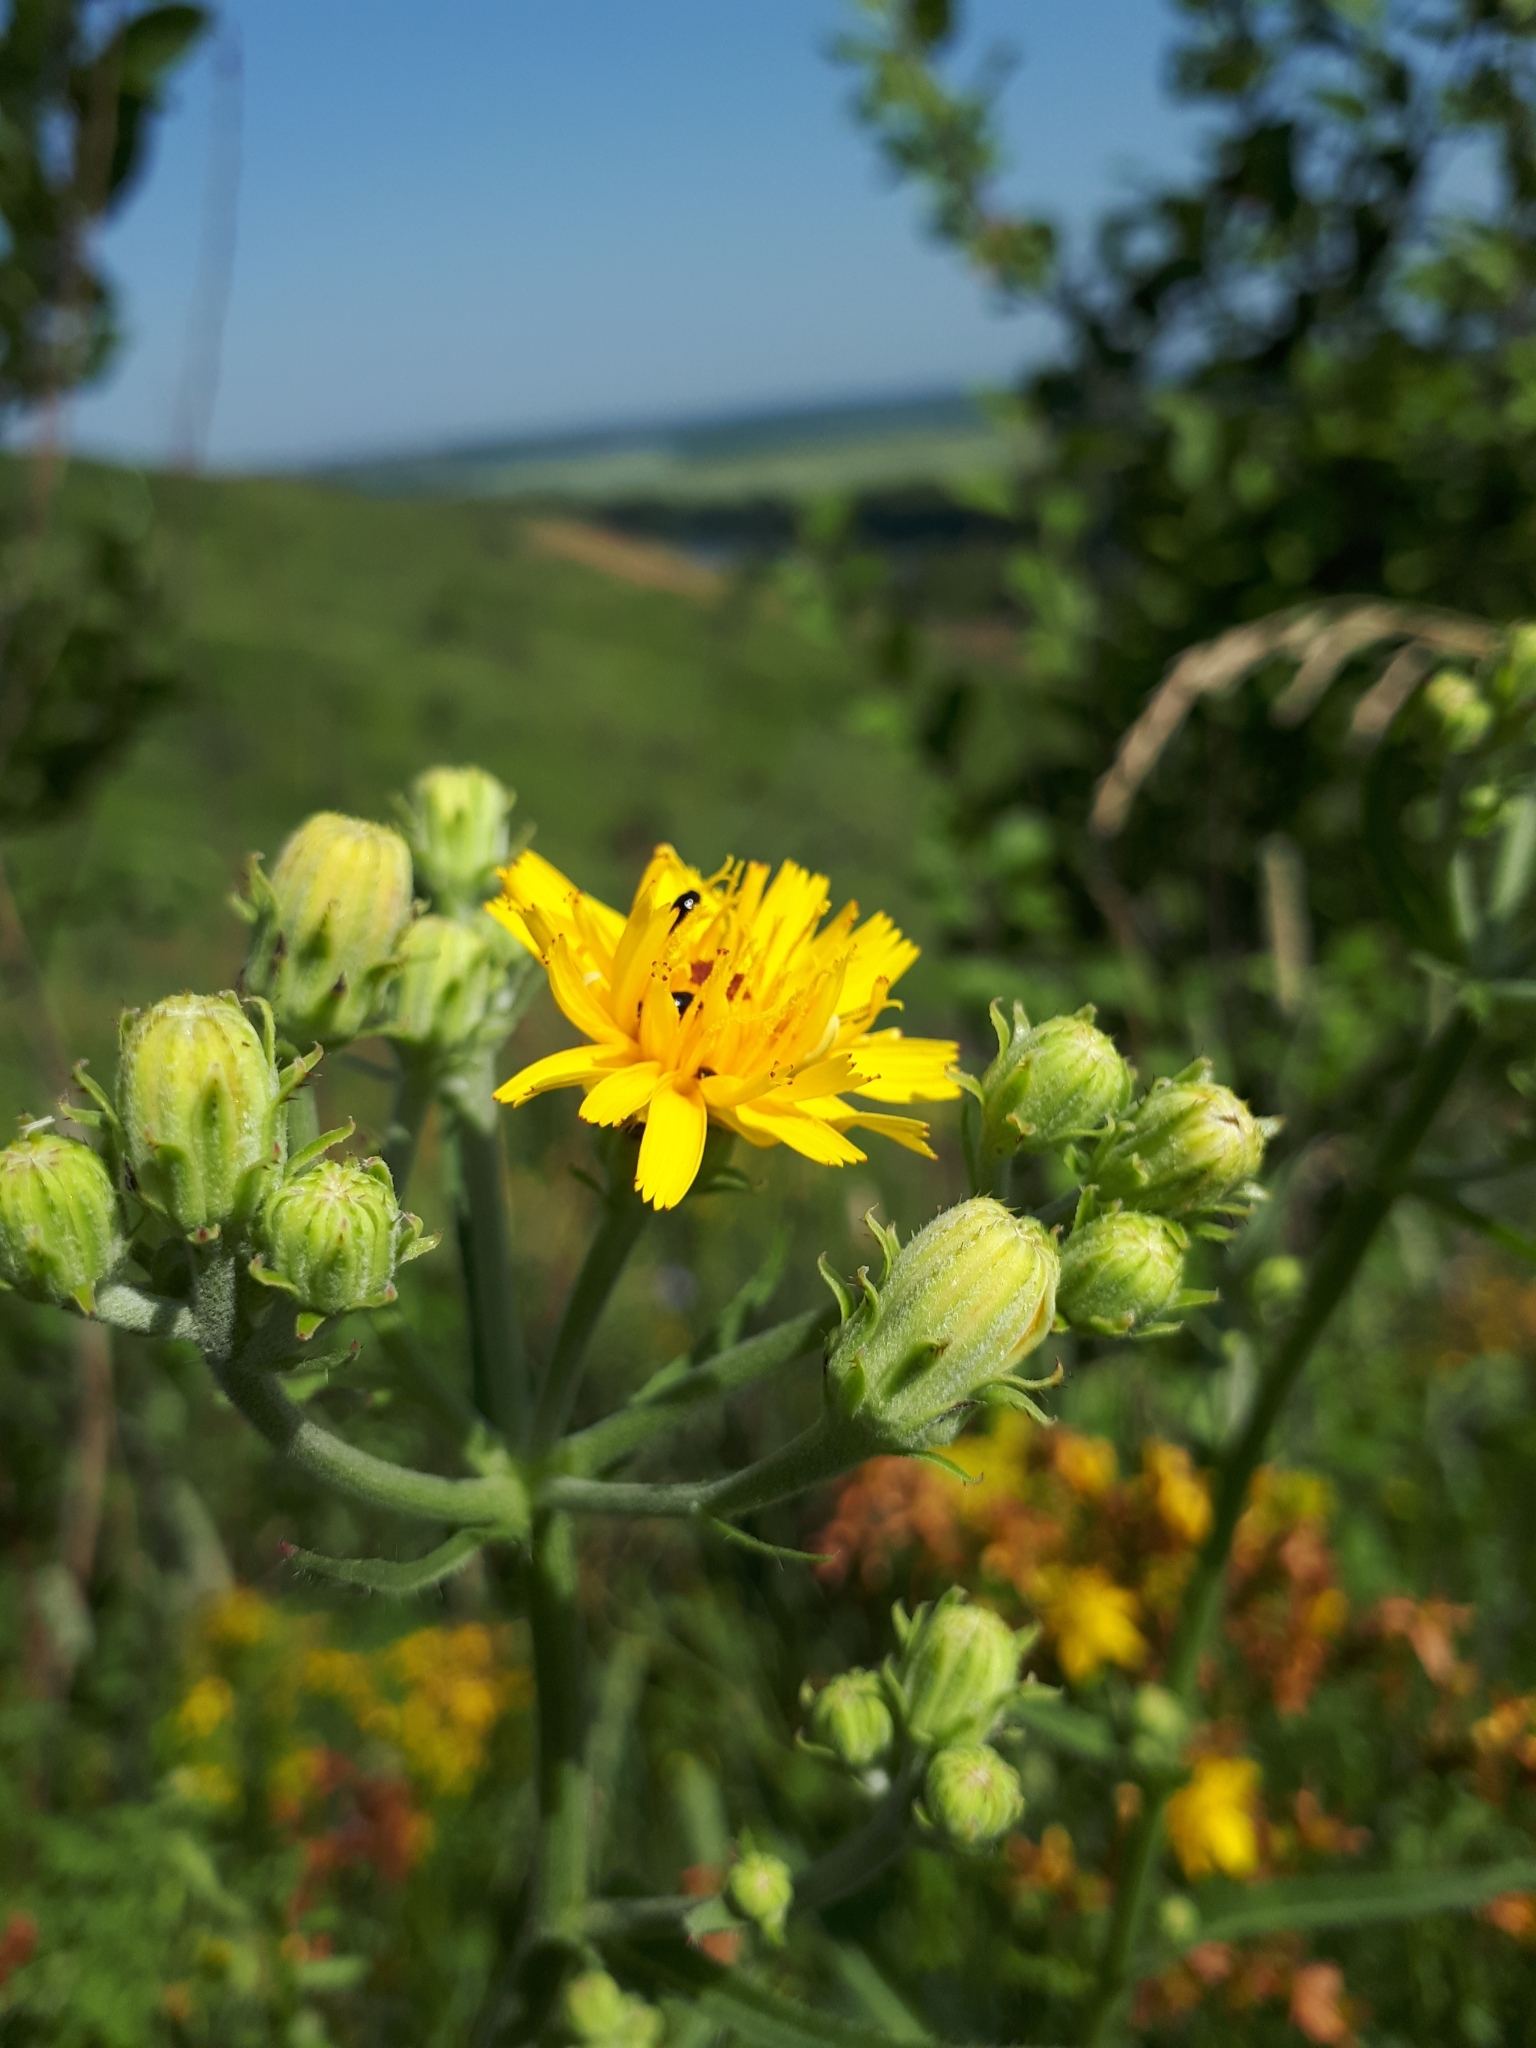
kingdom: Plantae
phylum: Tracheophyta
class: Magnoliopsida
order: Asterales
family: Asteraceae
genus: Picris
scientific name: Picris hieracioides
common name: Hawkweed oxtongue
